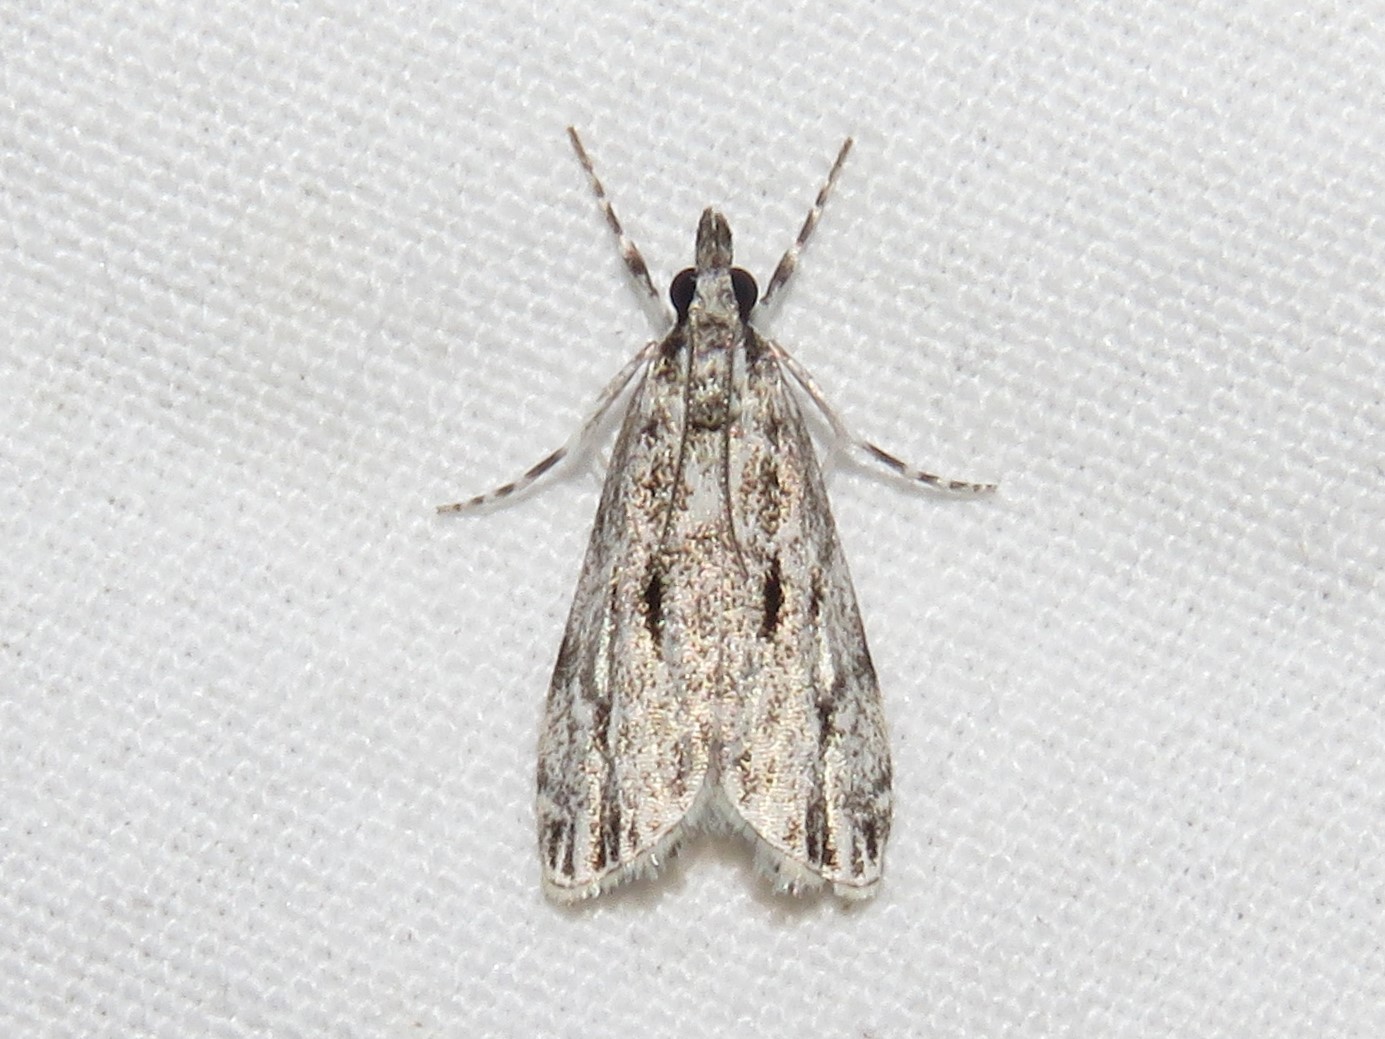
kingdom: Animalia
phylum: Arthropoda
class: Insecta
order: Lepidoptera
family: Crambidae
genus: Eudonia
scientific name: Eudonia strigalis
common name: Striped eudonia moth
